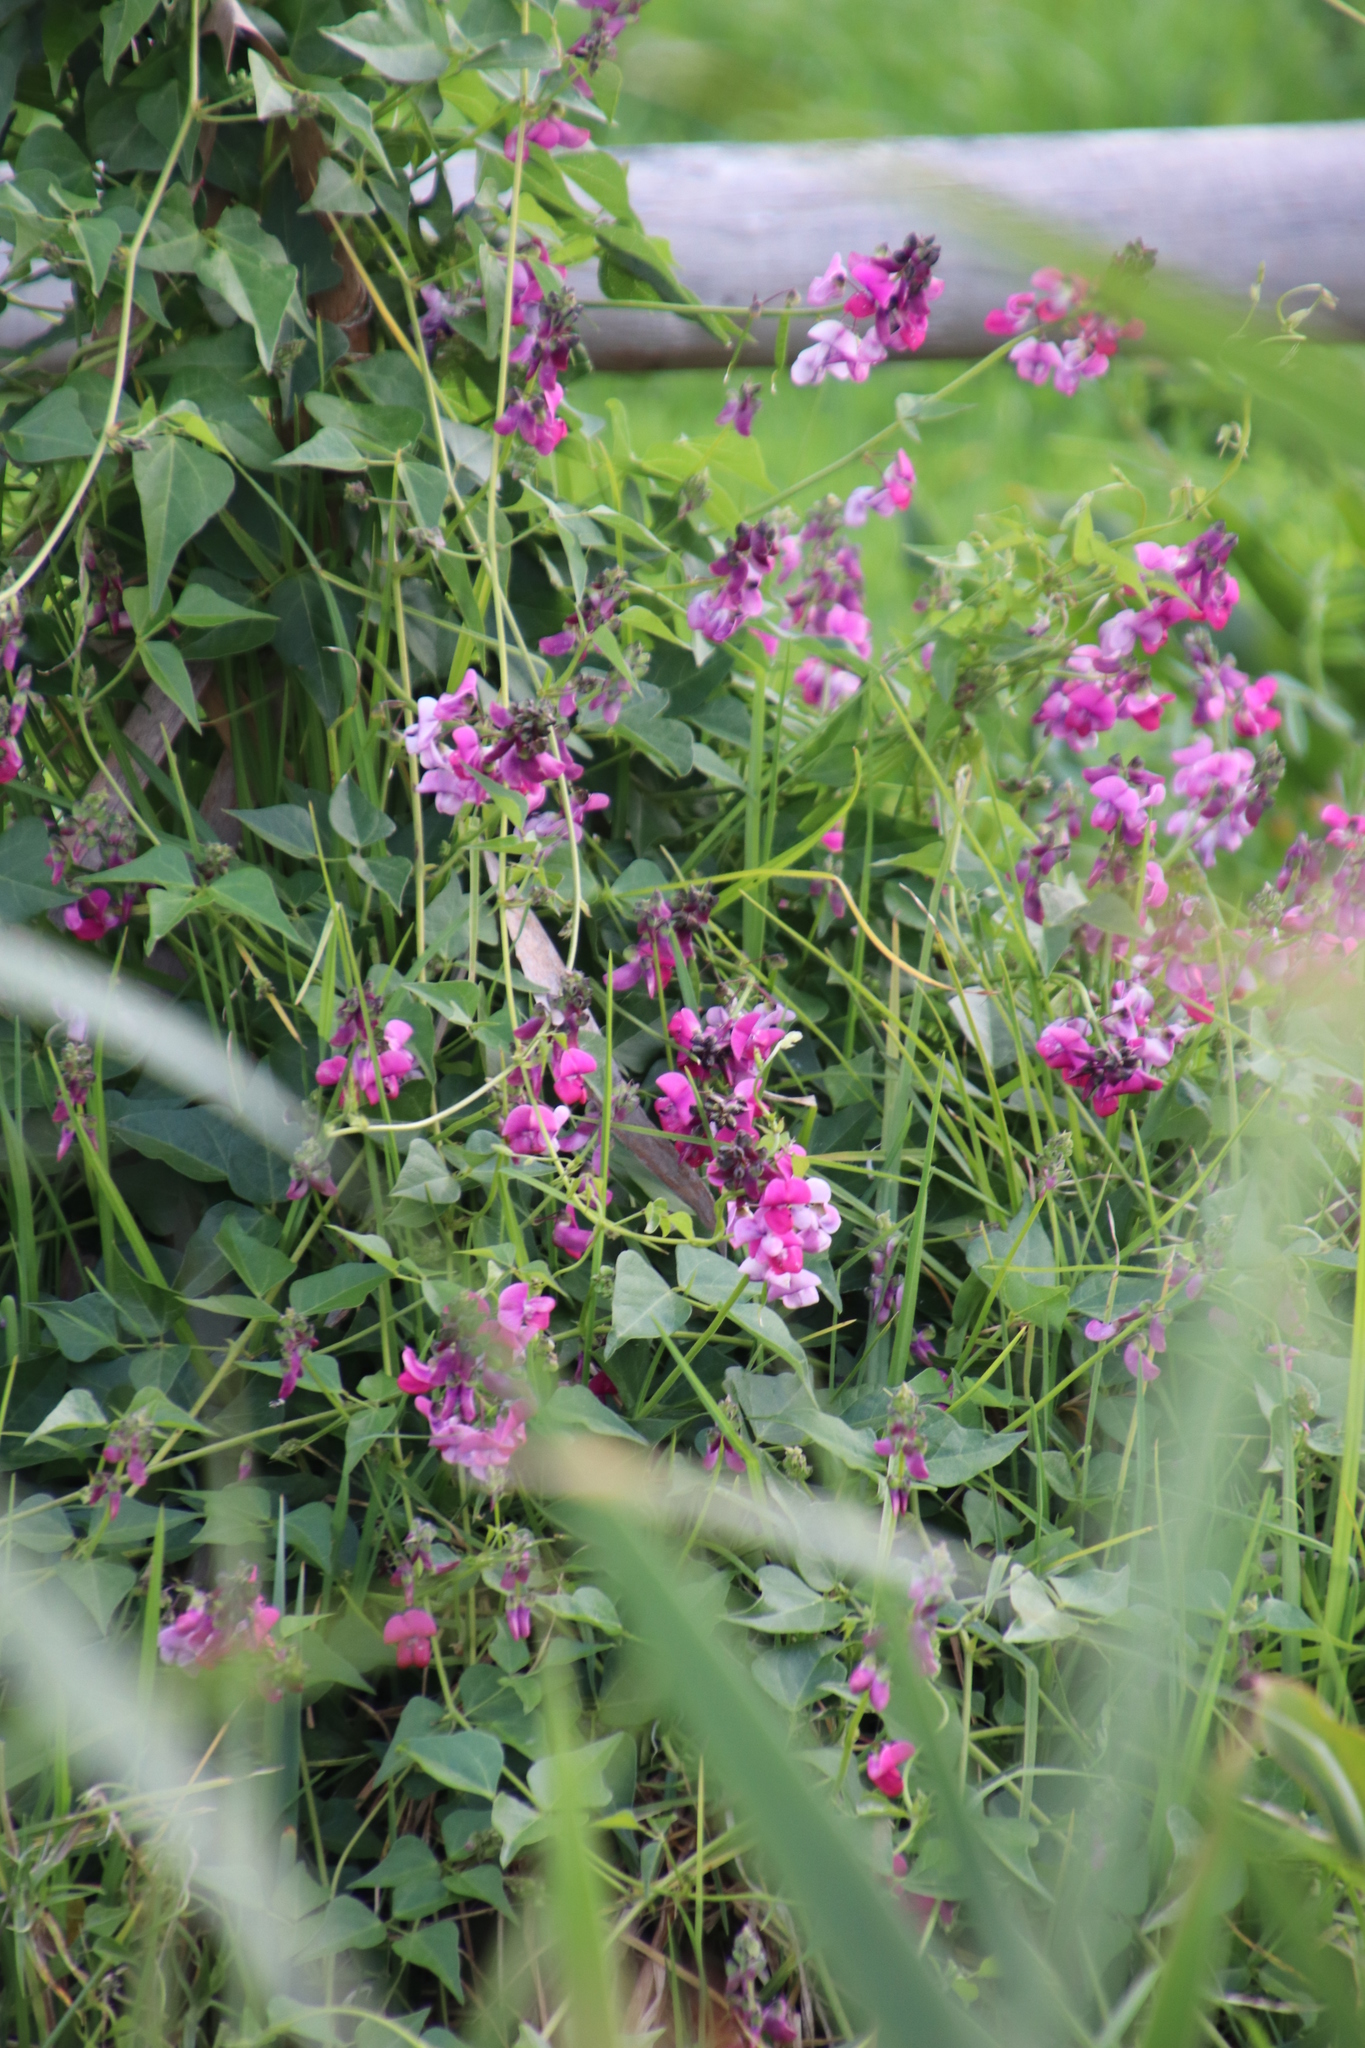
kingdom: Plantae
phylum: Tracheophyta
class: Magnoliopsida
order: Fabales
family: Fabaceae
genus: Dipogon
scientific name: Dipogon lignosus
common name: Okie bean
